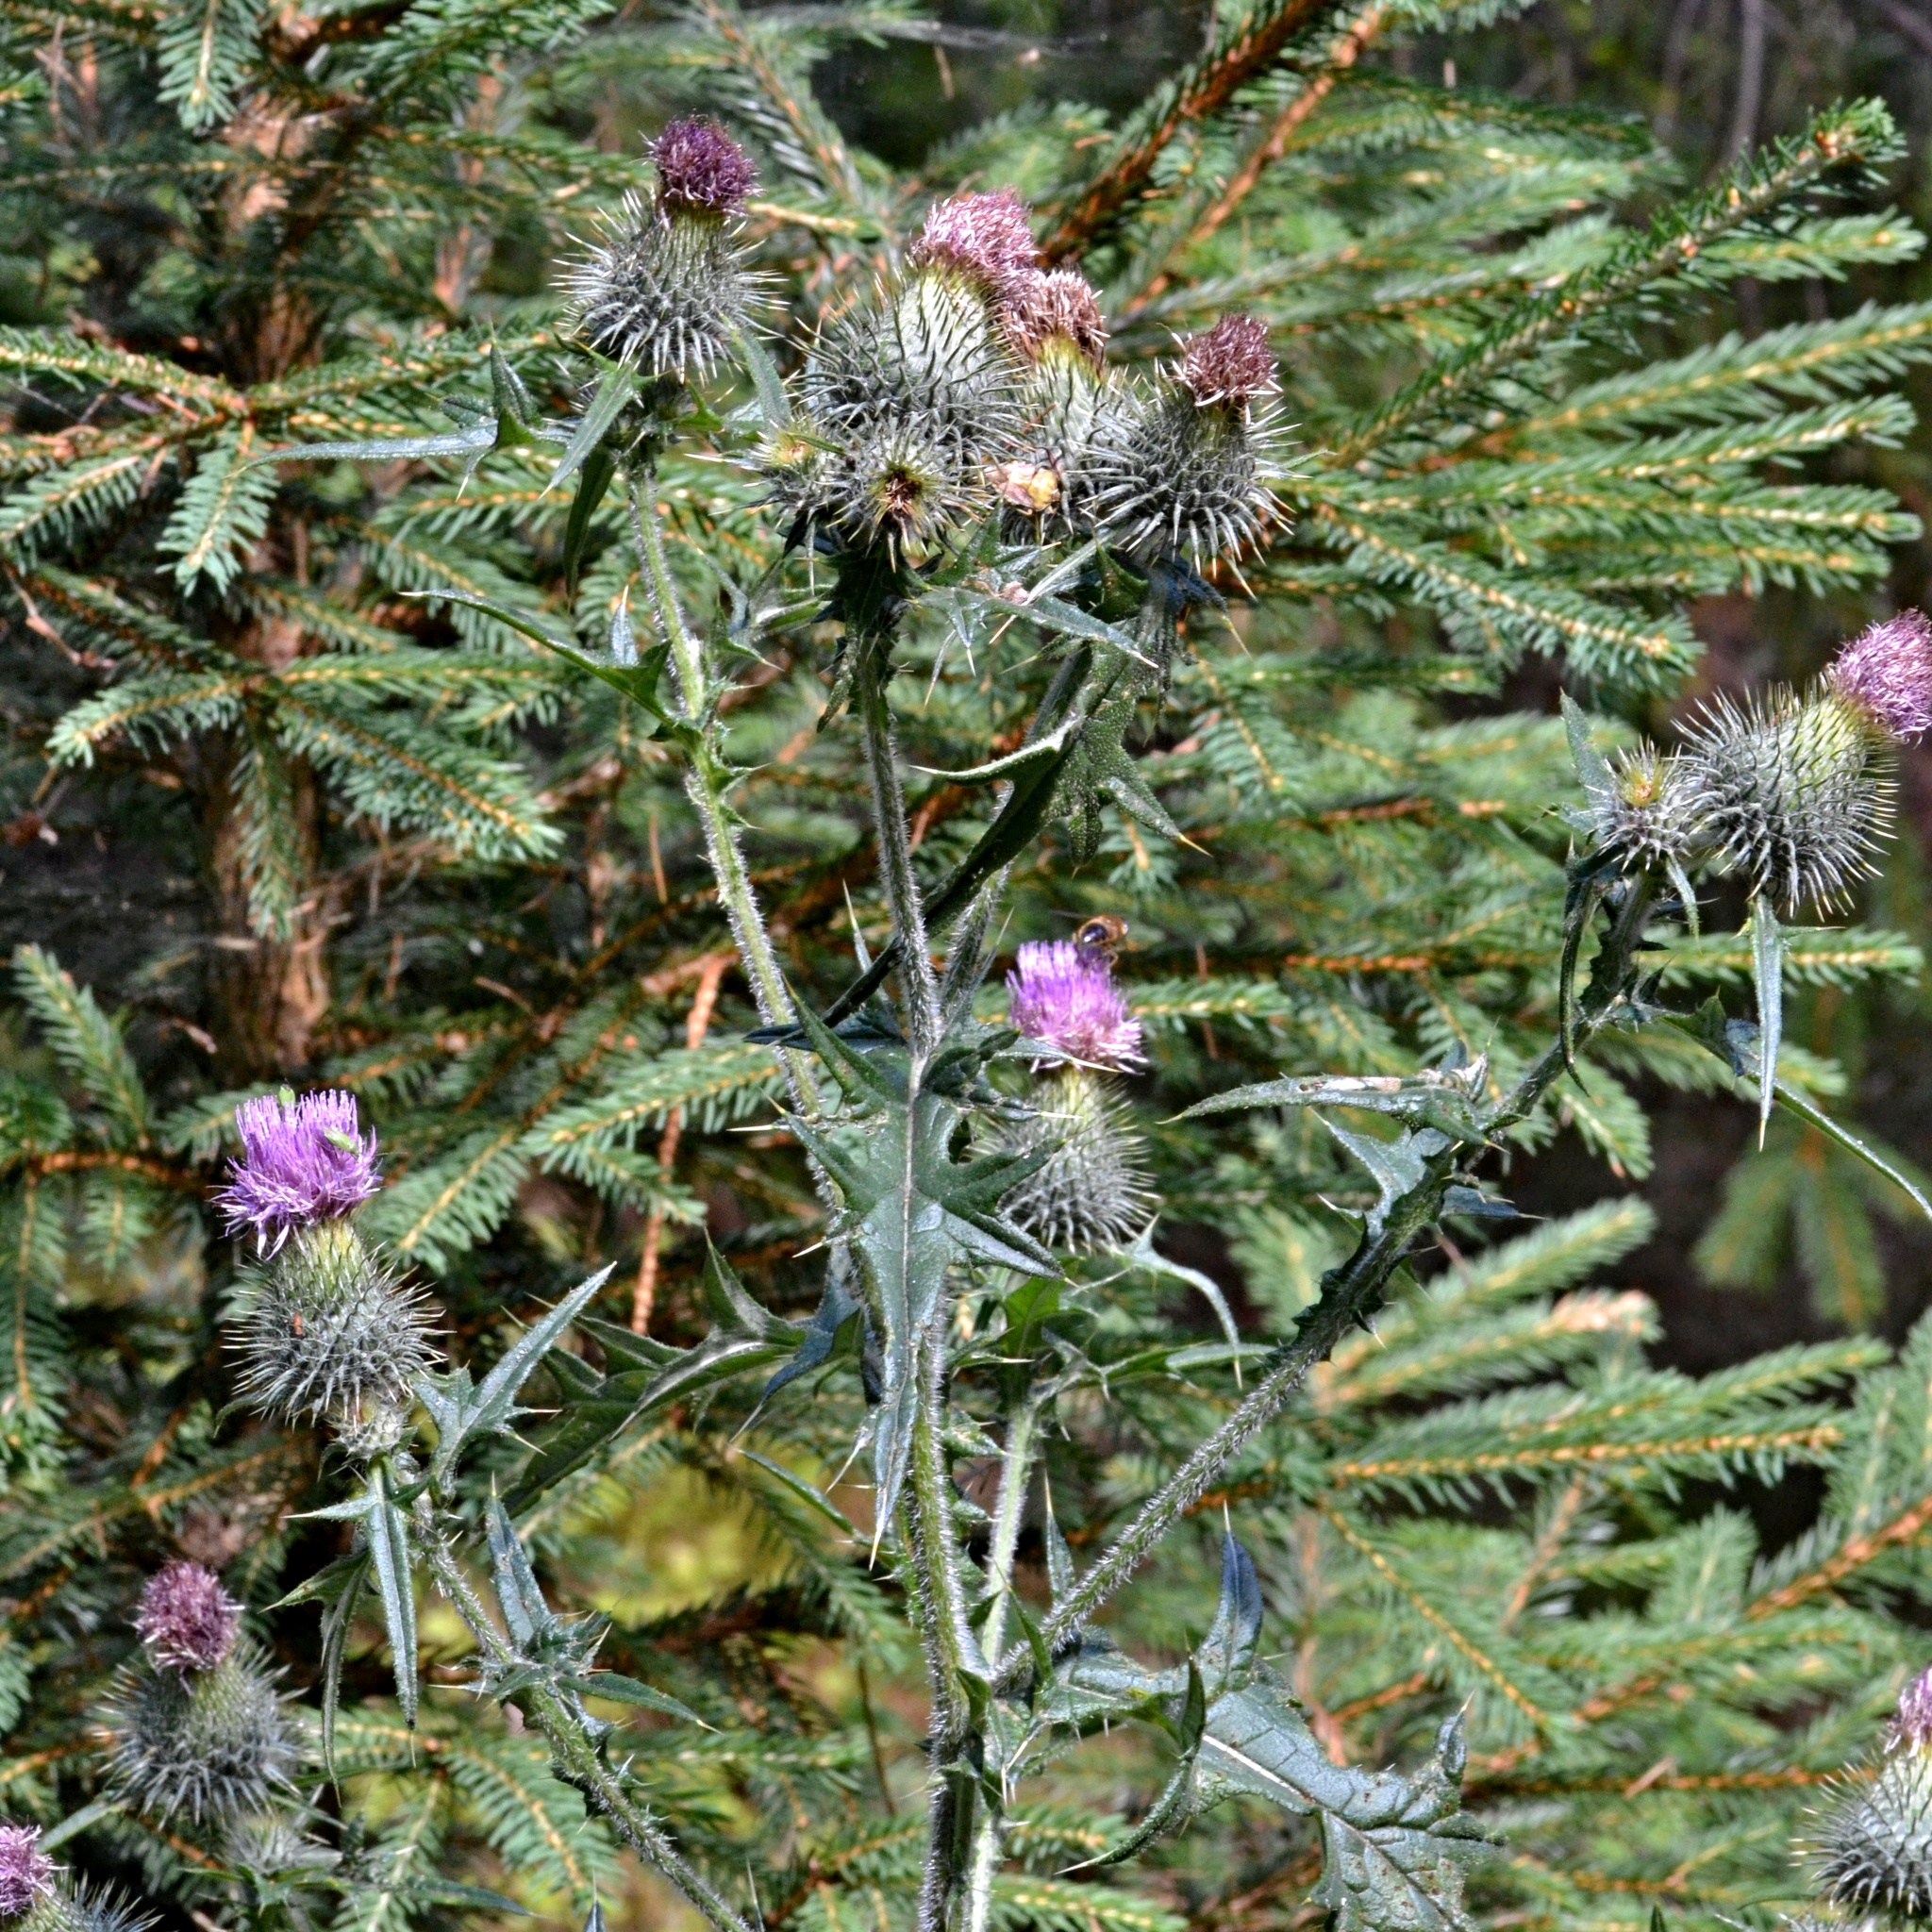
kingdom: Plantae
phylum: Tracheophyta
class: Magnoliopsida
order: Asterales
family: Asteraceae
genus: Cirsium
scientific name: Cirsium vulgare
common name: Bull thistle
